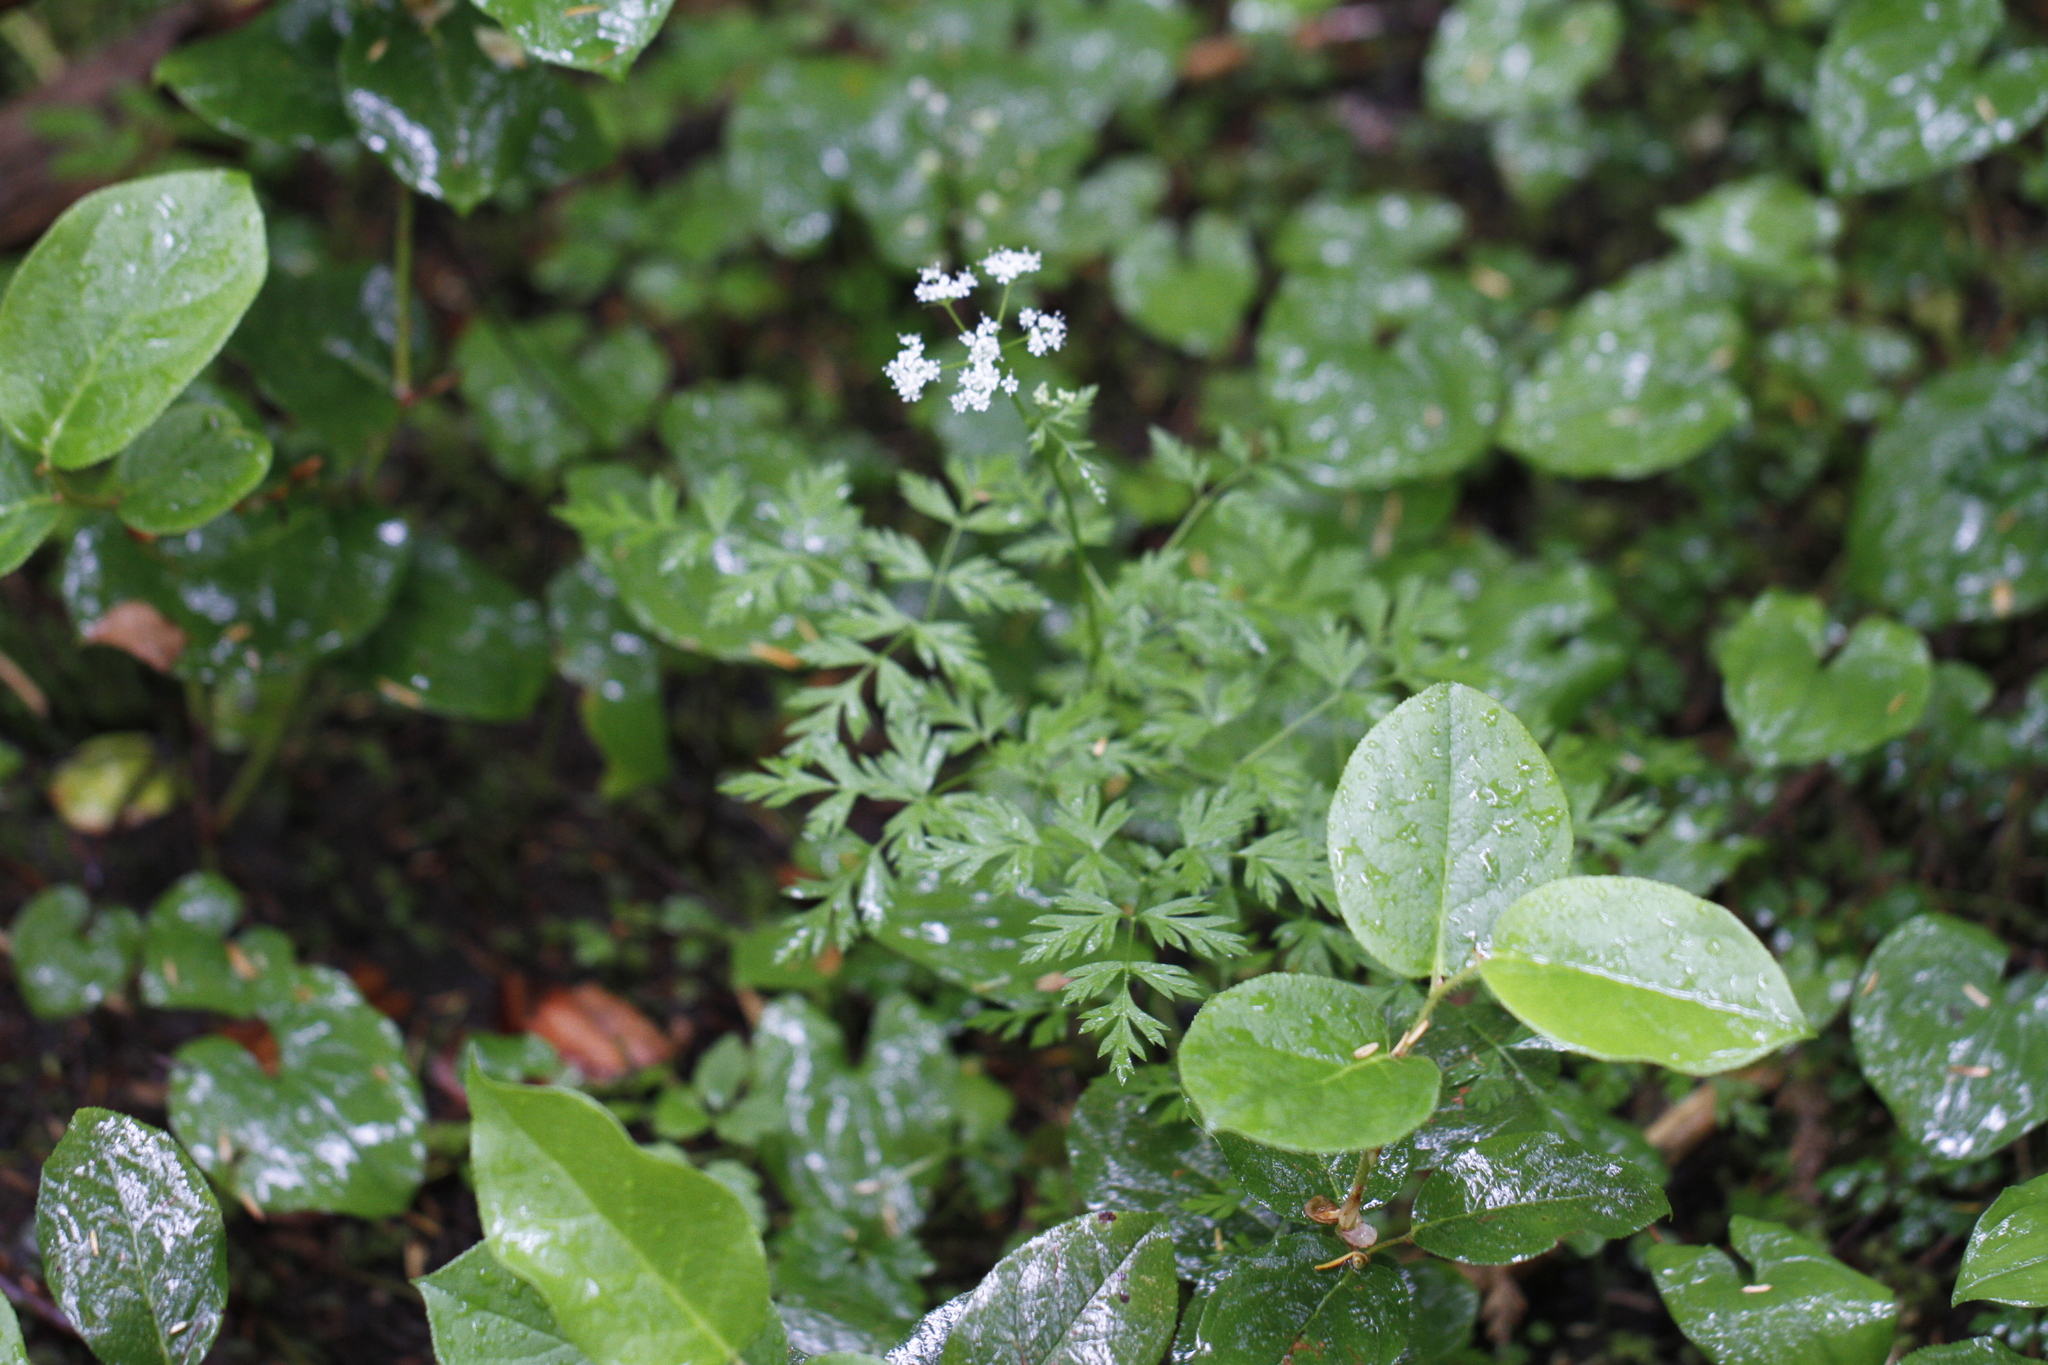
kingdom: Plantae
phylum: Tracheophyta
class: Magnoliopsida
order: Ericales
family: Ericaceae
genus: Gaultheria
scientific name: Gaultheria shallon
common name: Shallon
